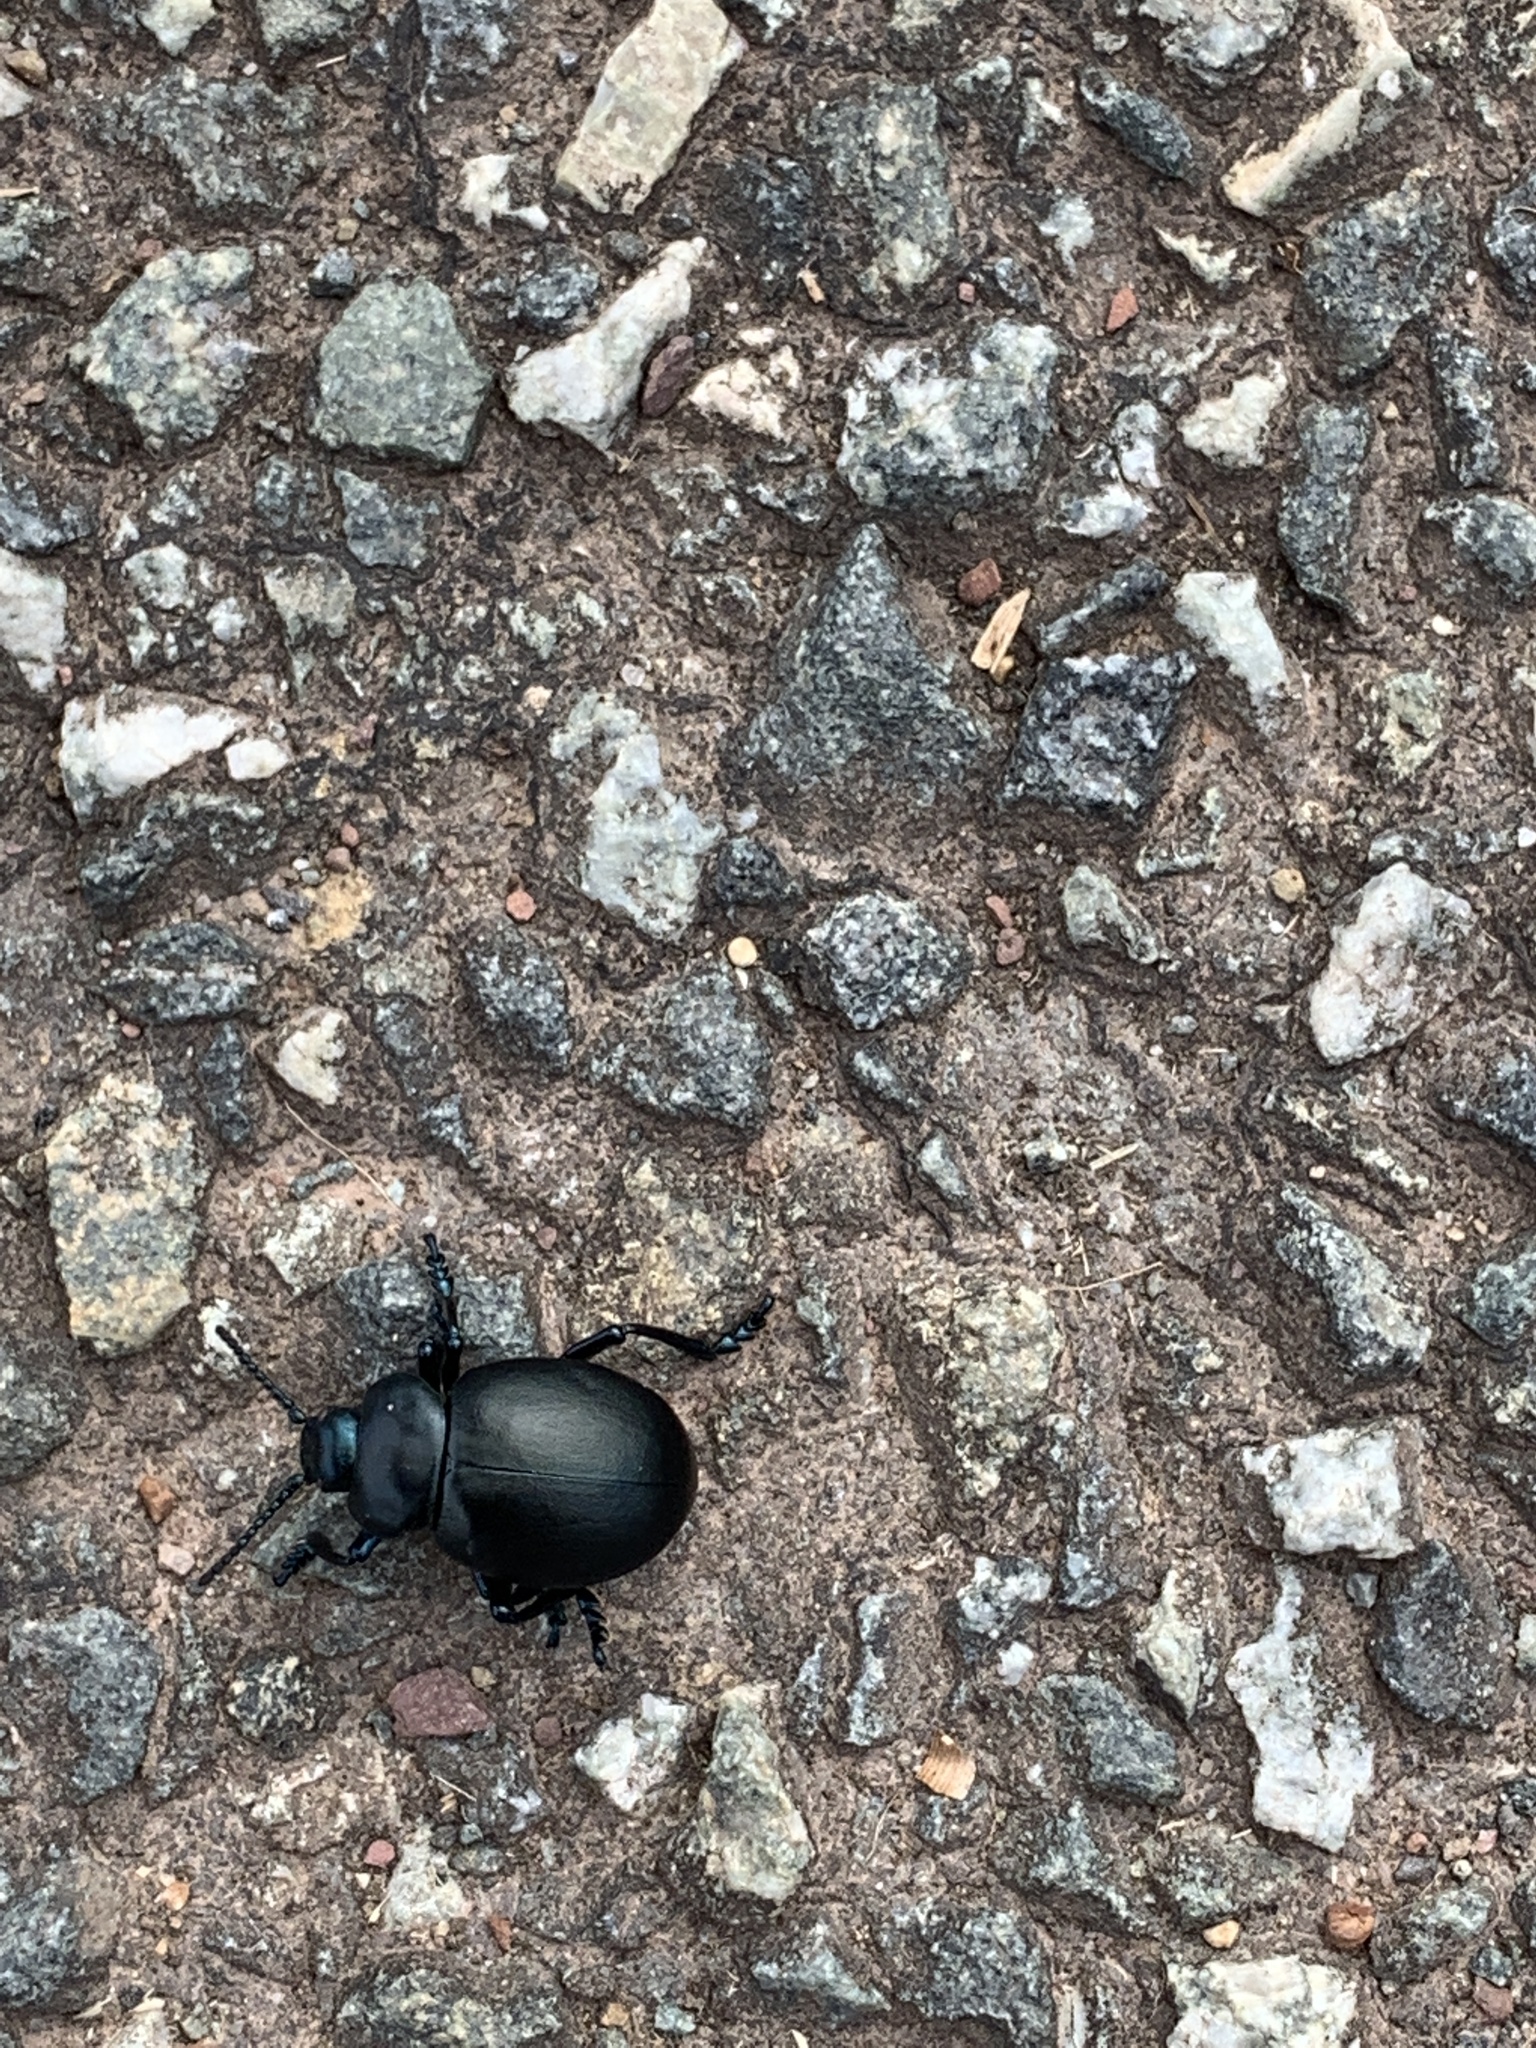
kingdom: Animalia
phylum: Arthropoda
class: Insecta
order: Coleoptera
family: Chrysomelidae
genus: Timarcha
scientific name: Timarcha tenebricosa
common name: Bloody-nosed beetle
